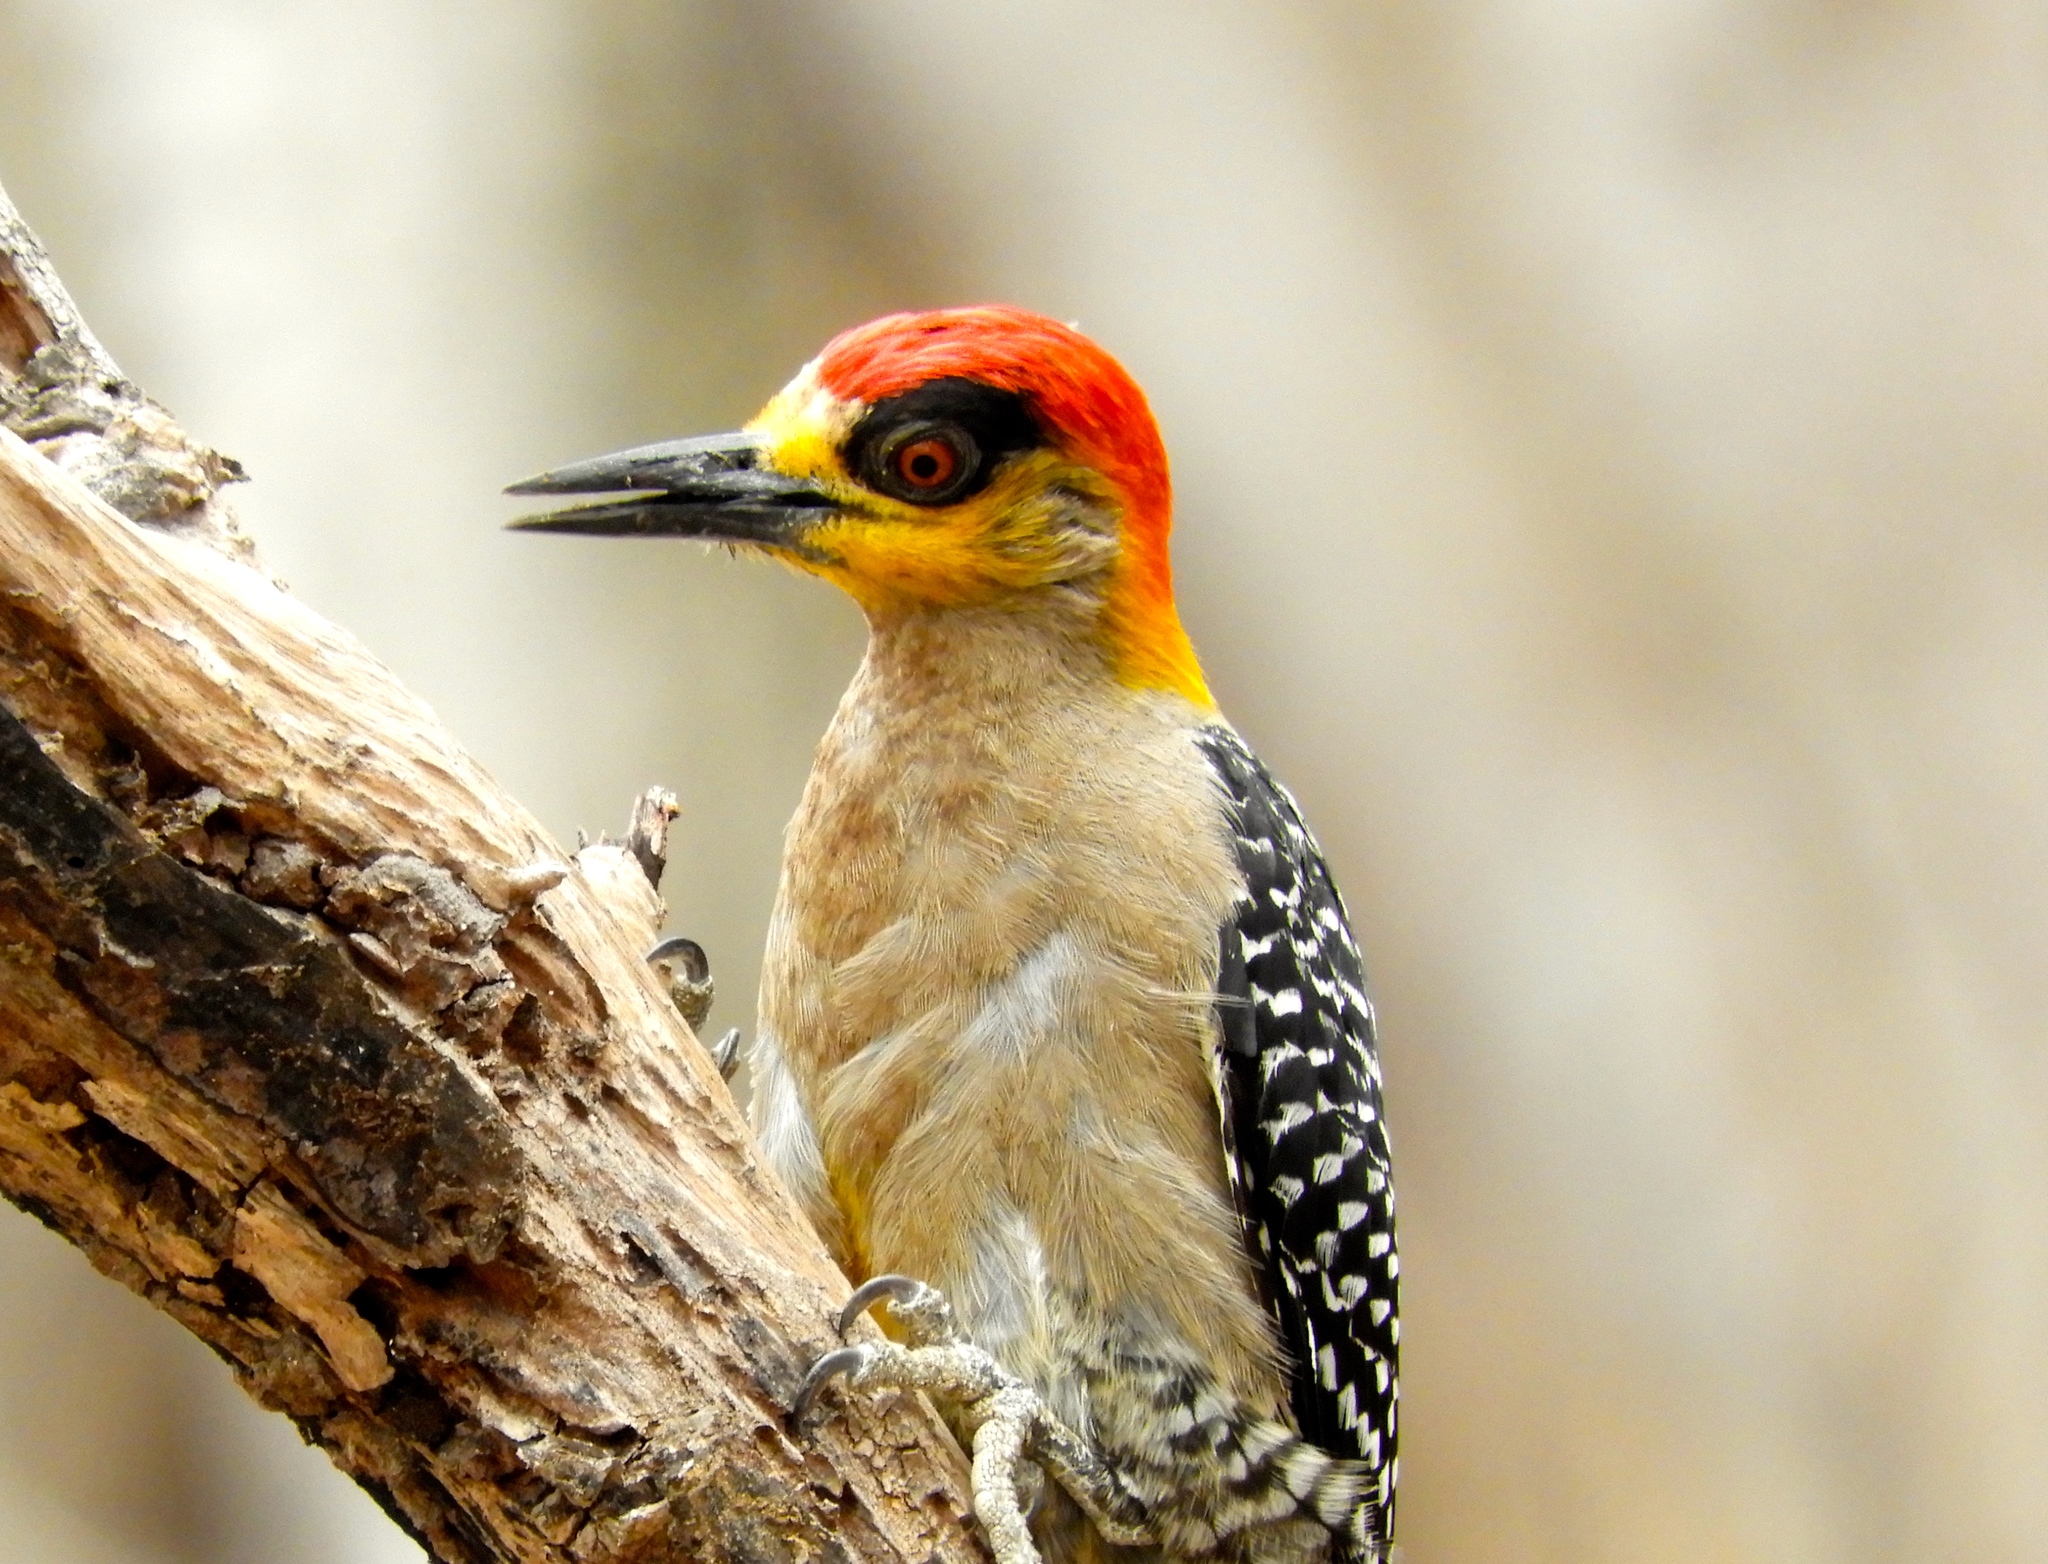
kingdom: Animalia
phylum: Chordata
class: Aves
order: Piciformes
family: Picidae
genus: Melanerpes
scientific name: Melanerpes chrysogenys
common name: Golden-cheeked woodpecker
